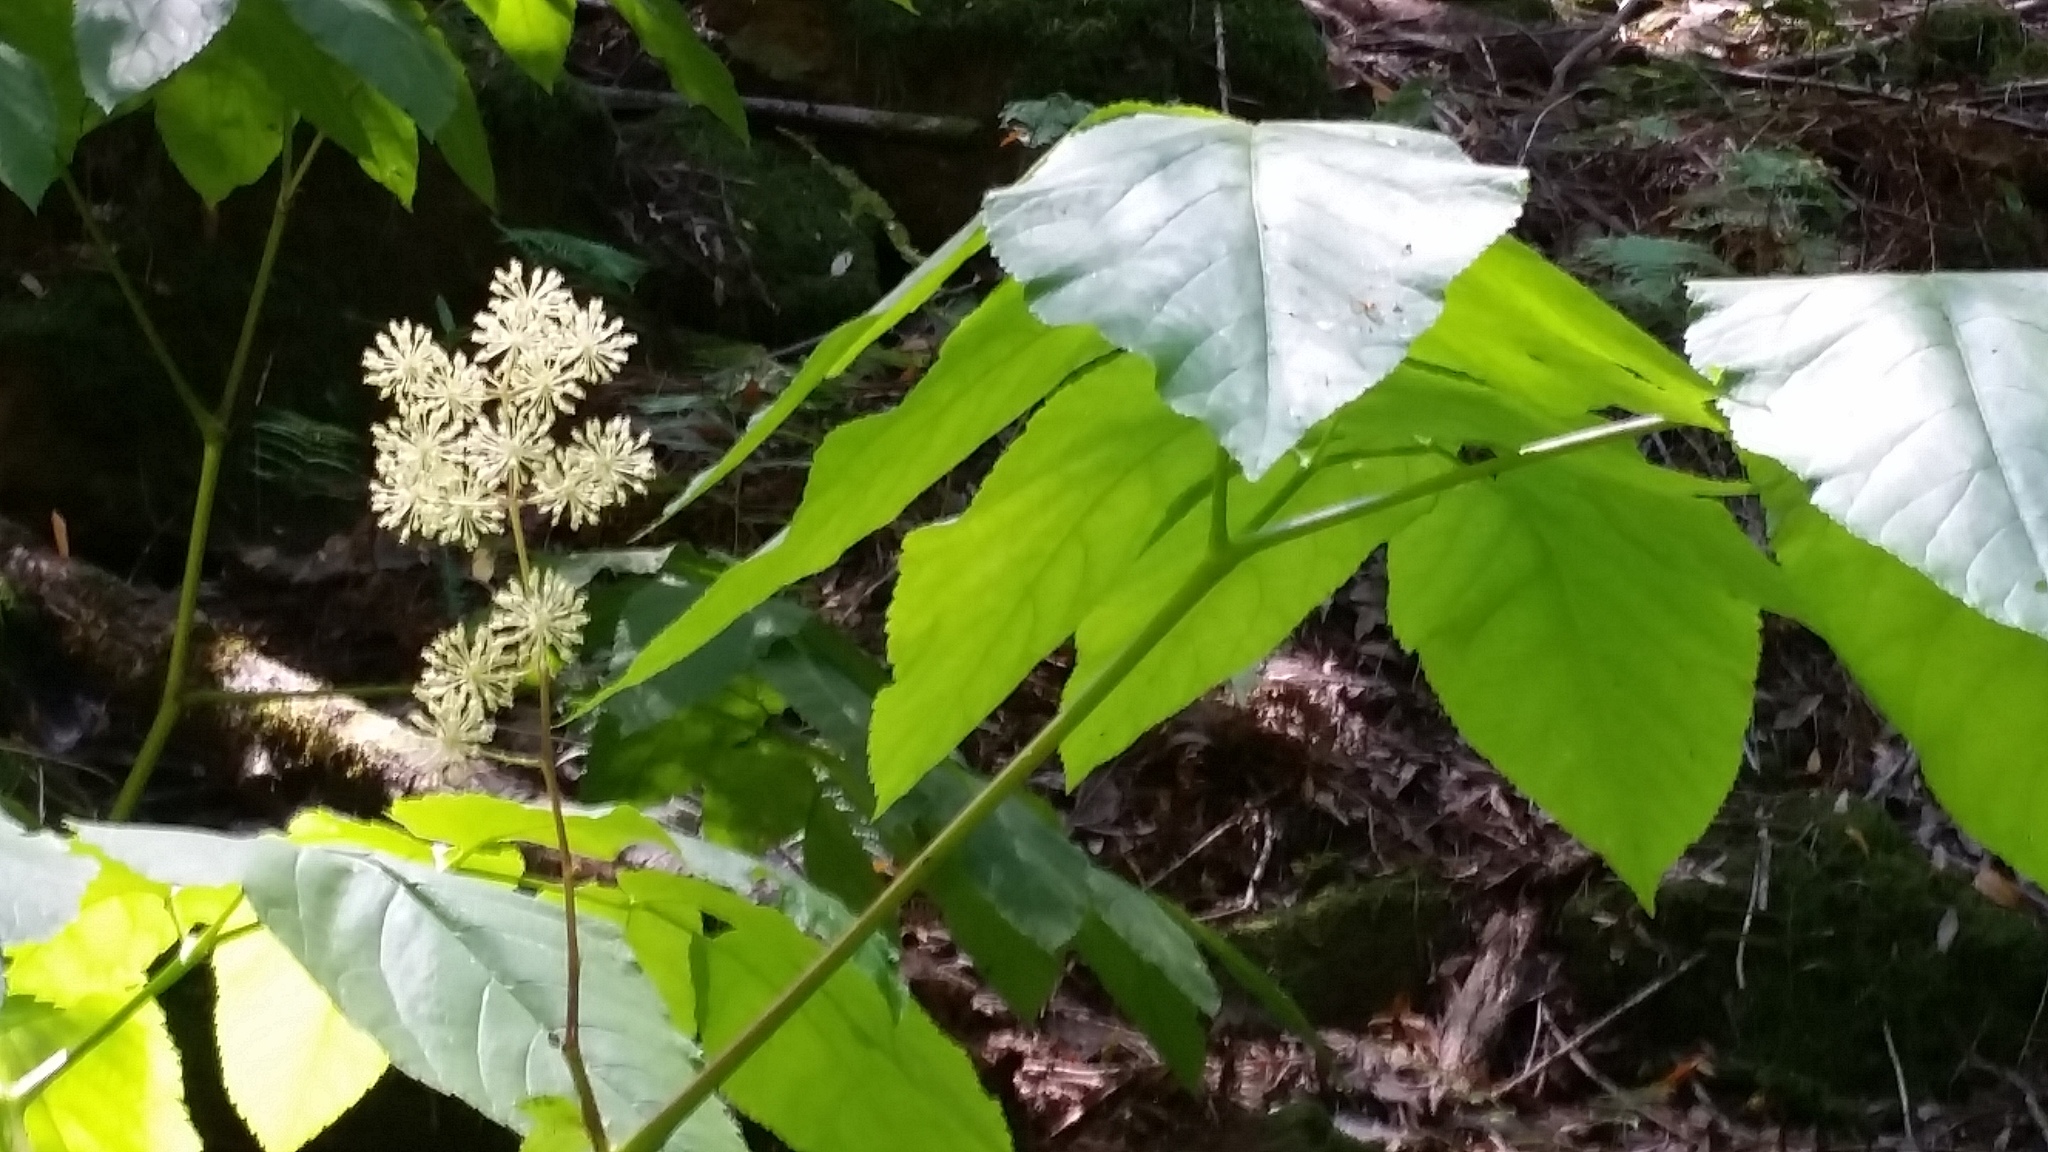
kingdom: Plantae
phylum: Tracheophyta
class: Magnoliopsida
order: Apiales
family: Araliaceae
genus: Aralia
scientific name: Aralia californica
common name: California-ginseng
